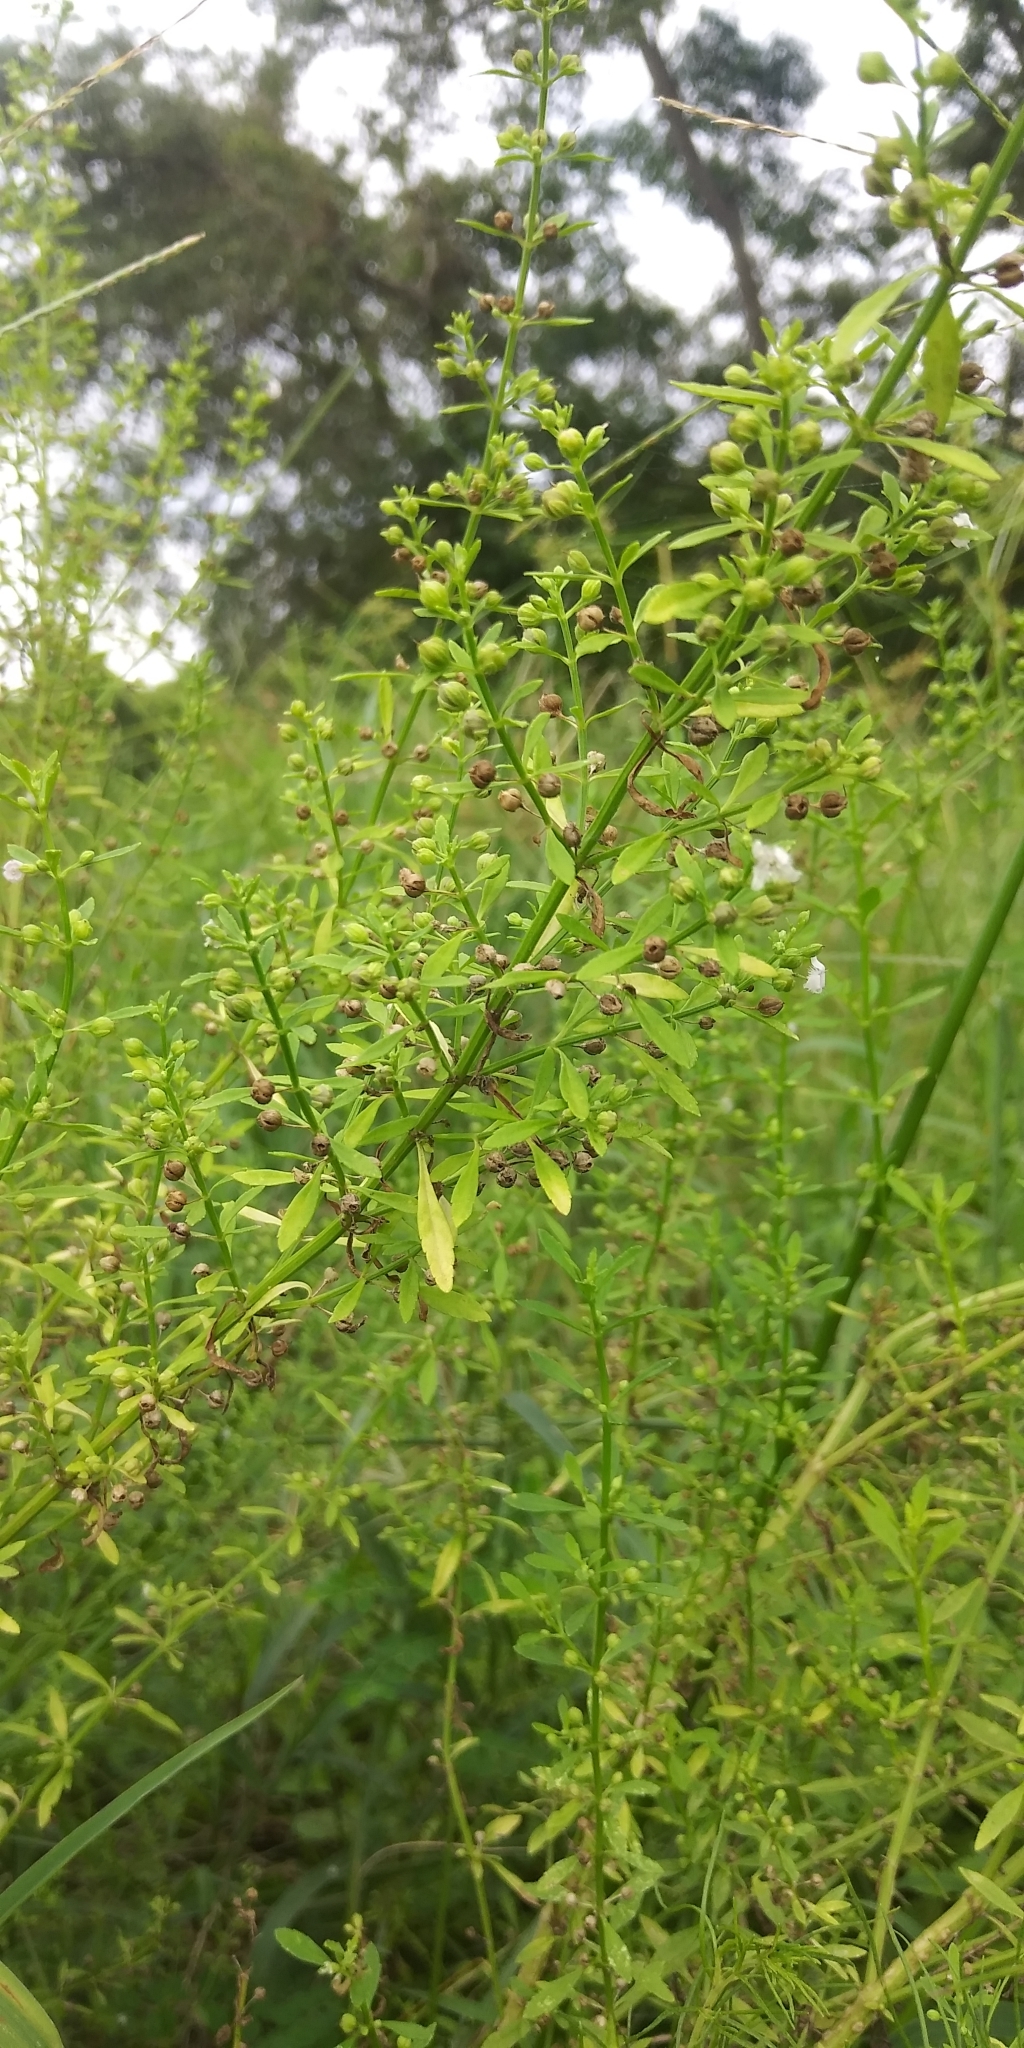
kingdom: Plantae
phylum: Tracheophyta
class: Magnoliopsida
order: Lamiales
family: Plantaginaceae
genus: Scoparia
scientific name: Scoparia dulcis
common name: Scoparia-weed
